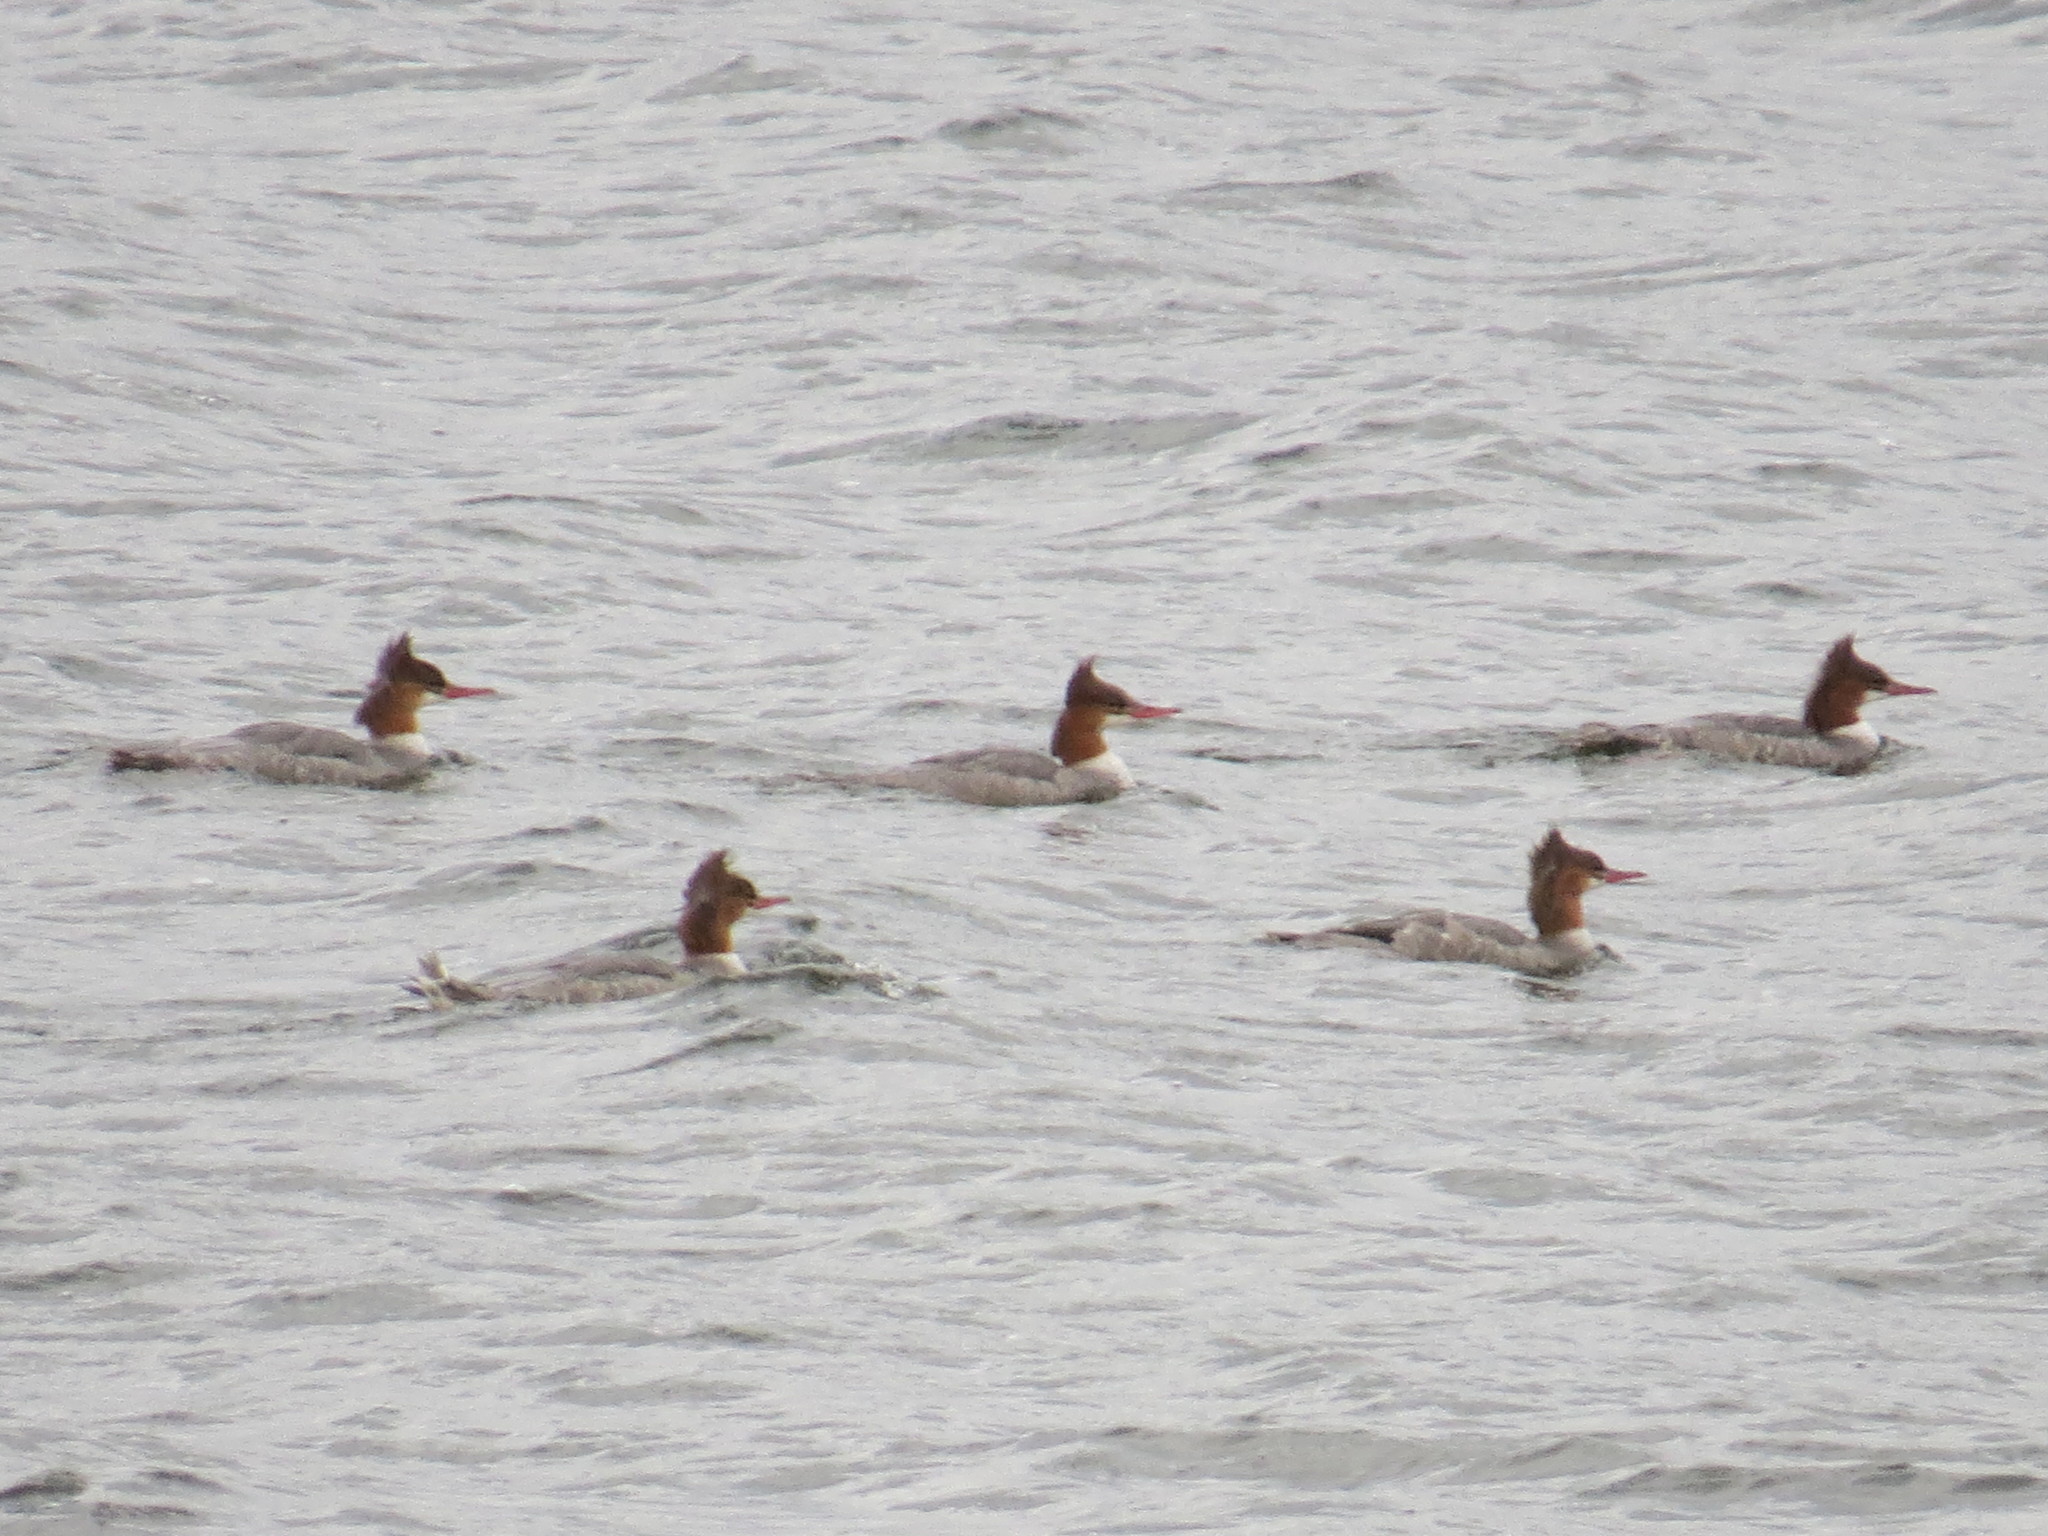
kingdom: Animalia
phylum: Chordata
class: Aves
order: Anseriformes
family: Anatidae
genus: Mergus
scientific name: Mergus merganser
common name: Common merganser
